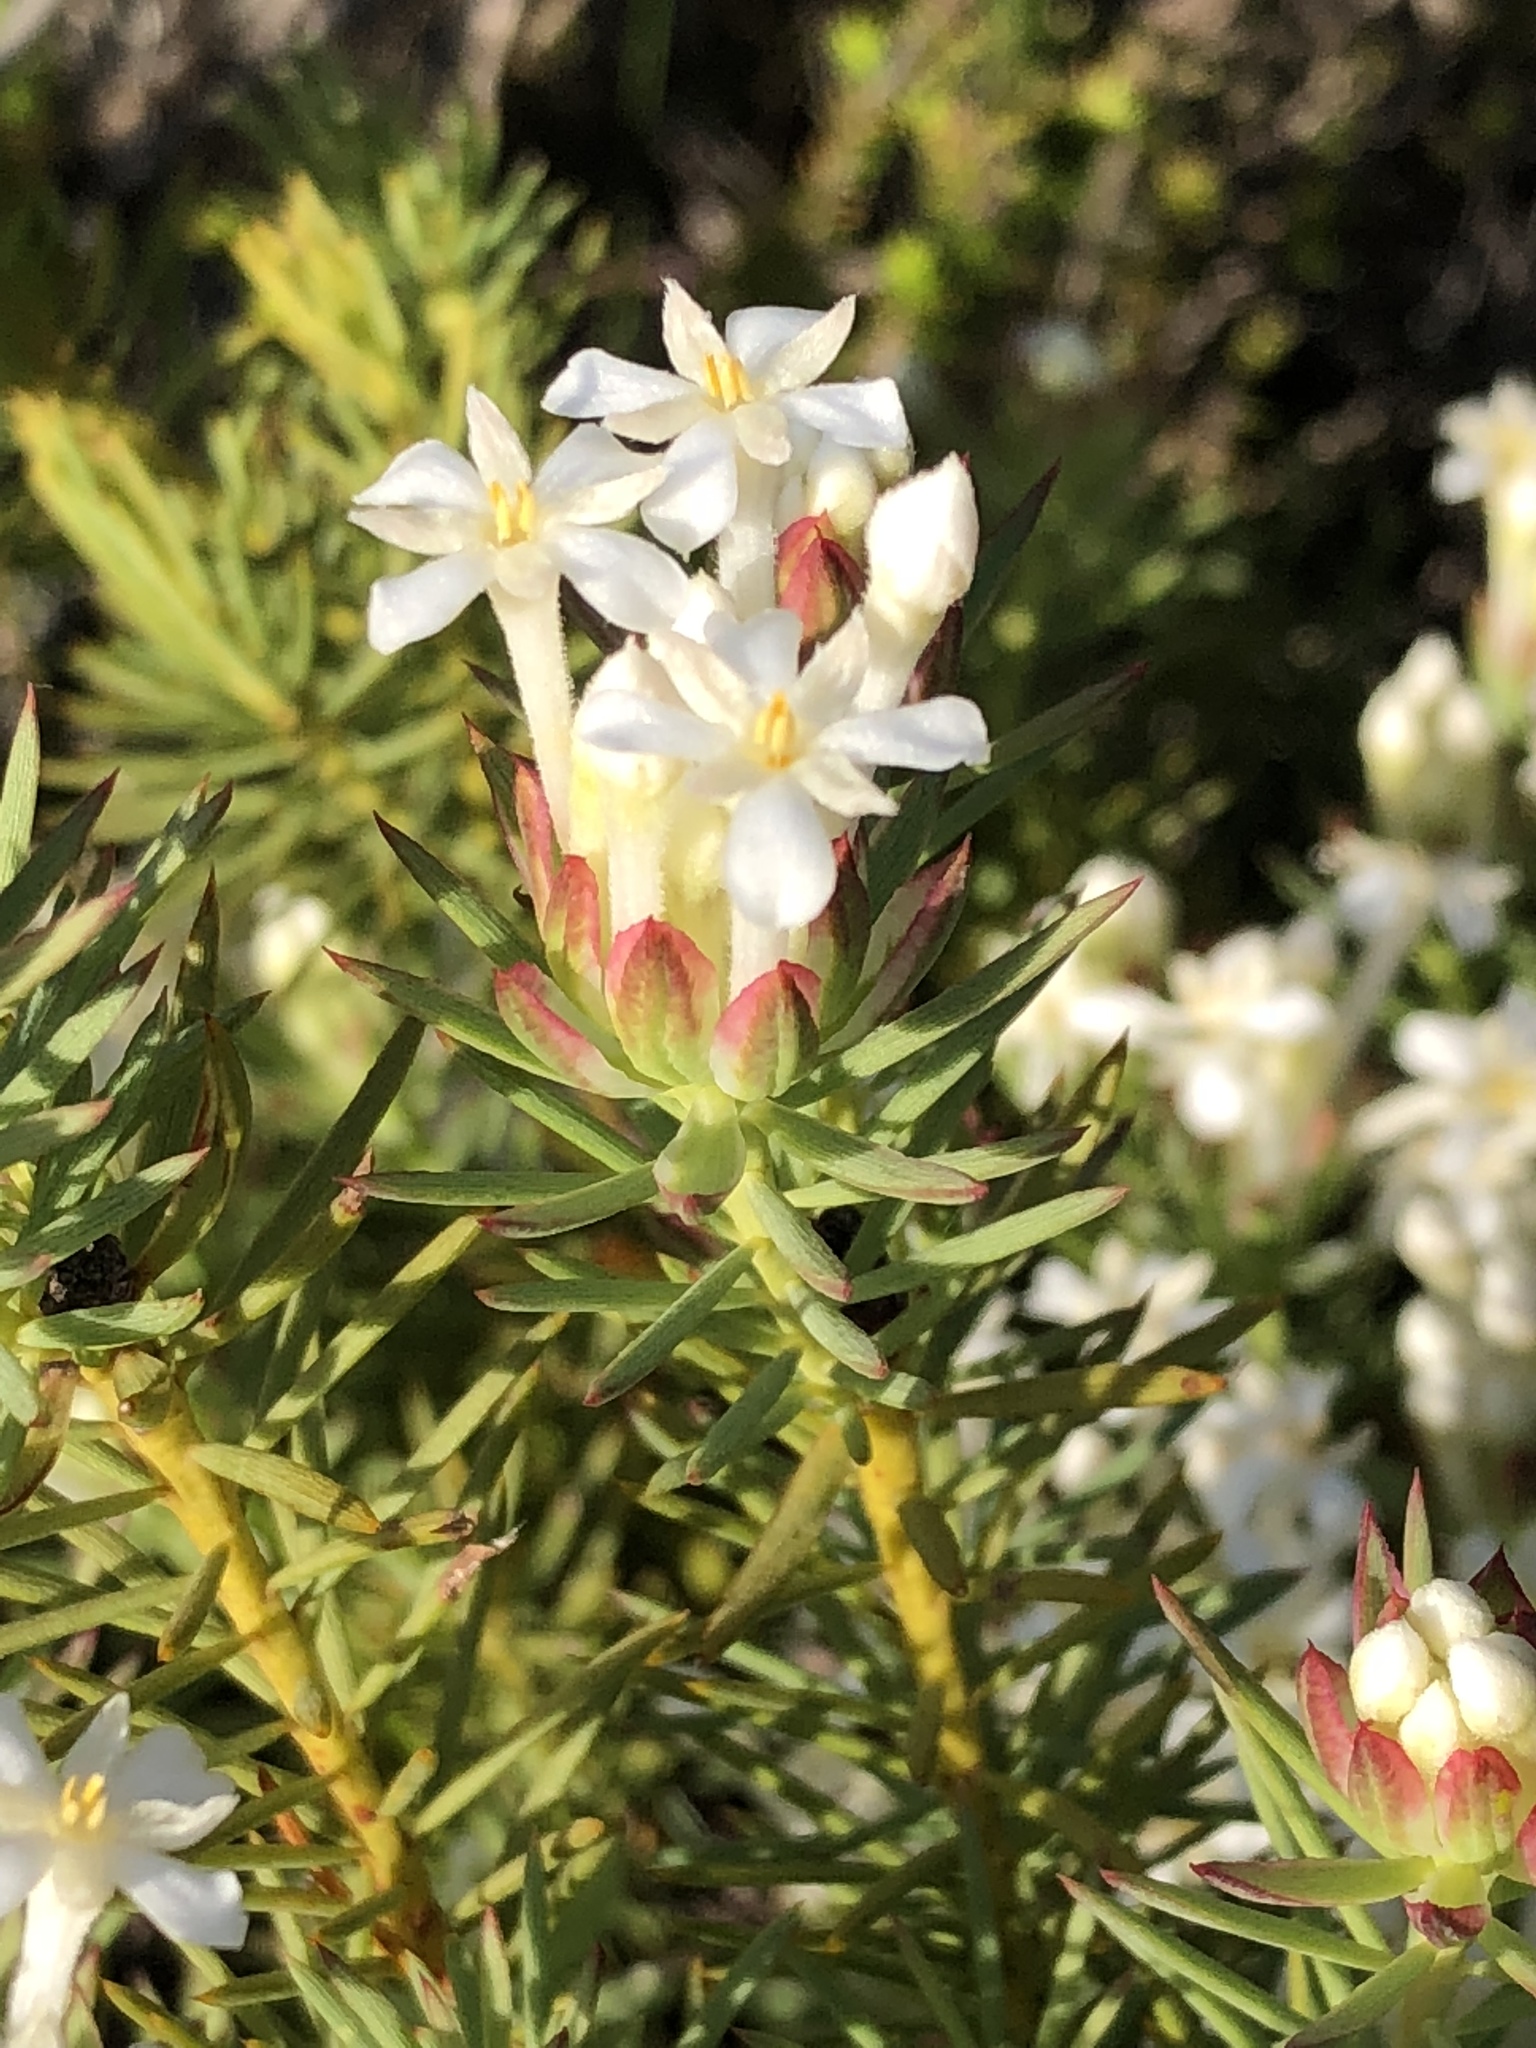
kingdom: Plantae
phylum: Tracheophyta
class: Magnoliopsida
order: Malvales
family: Thymelaeaceae
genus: Gnidia
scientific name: Gnidia pinifolia
